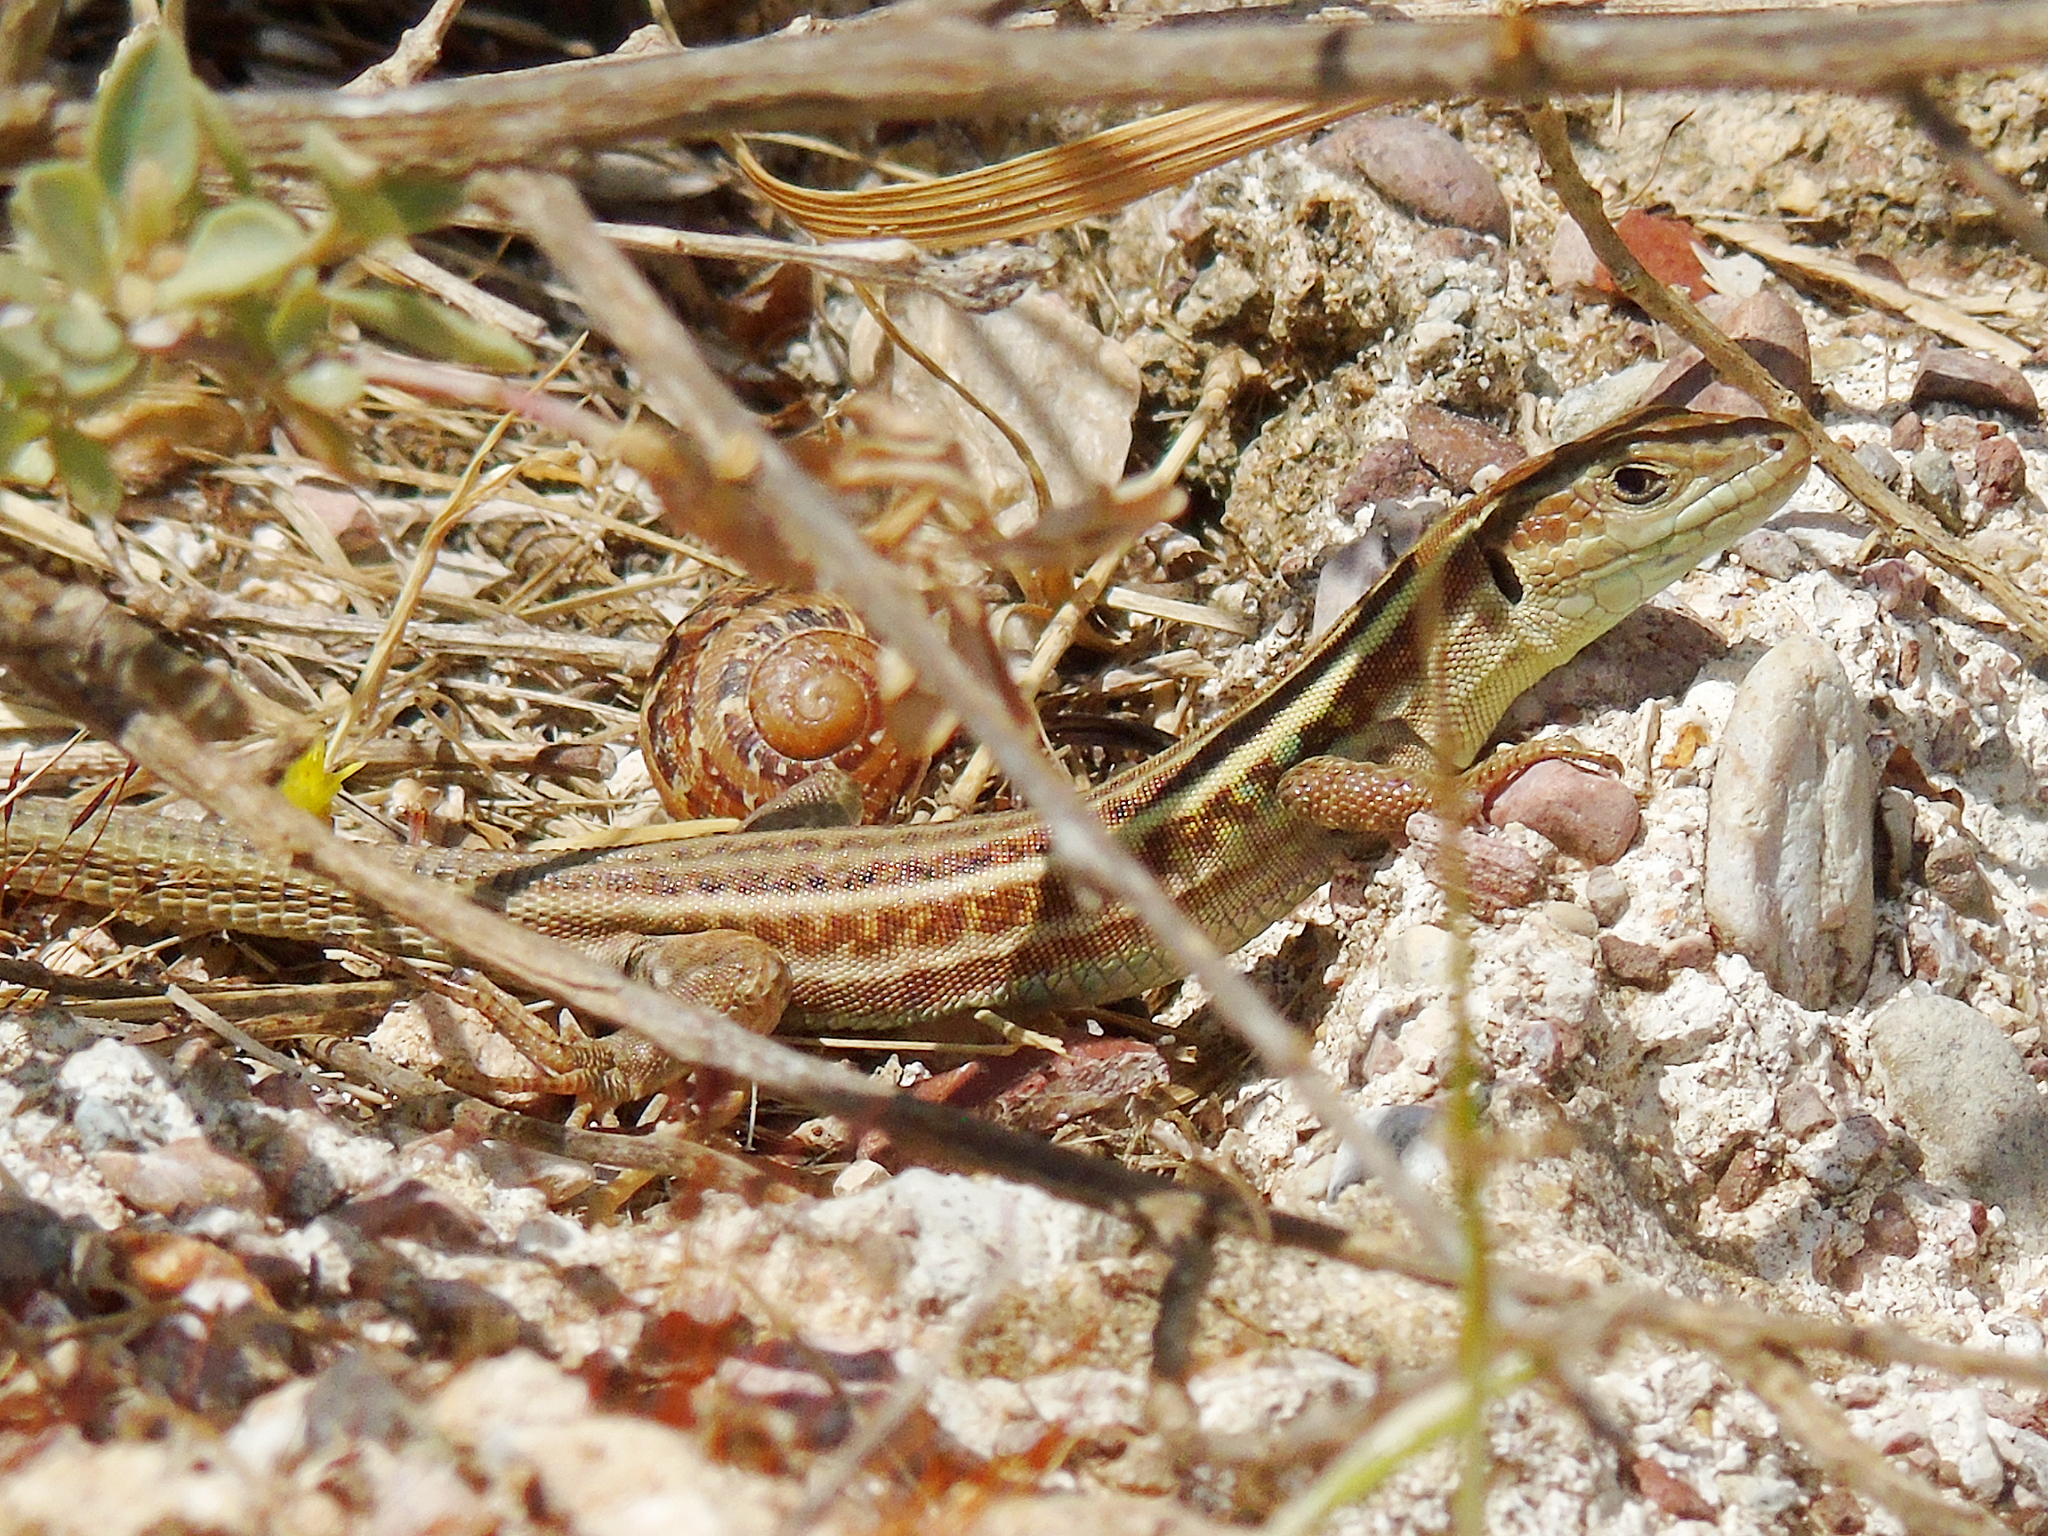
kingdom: Animalia
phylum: Chordata
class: Squamata
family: Lacertidae
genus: Podarcis
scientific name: Podarcis peloponnesiacus
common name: Peloponnese wall lizard
